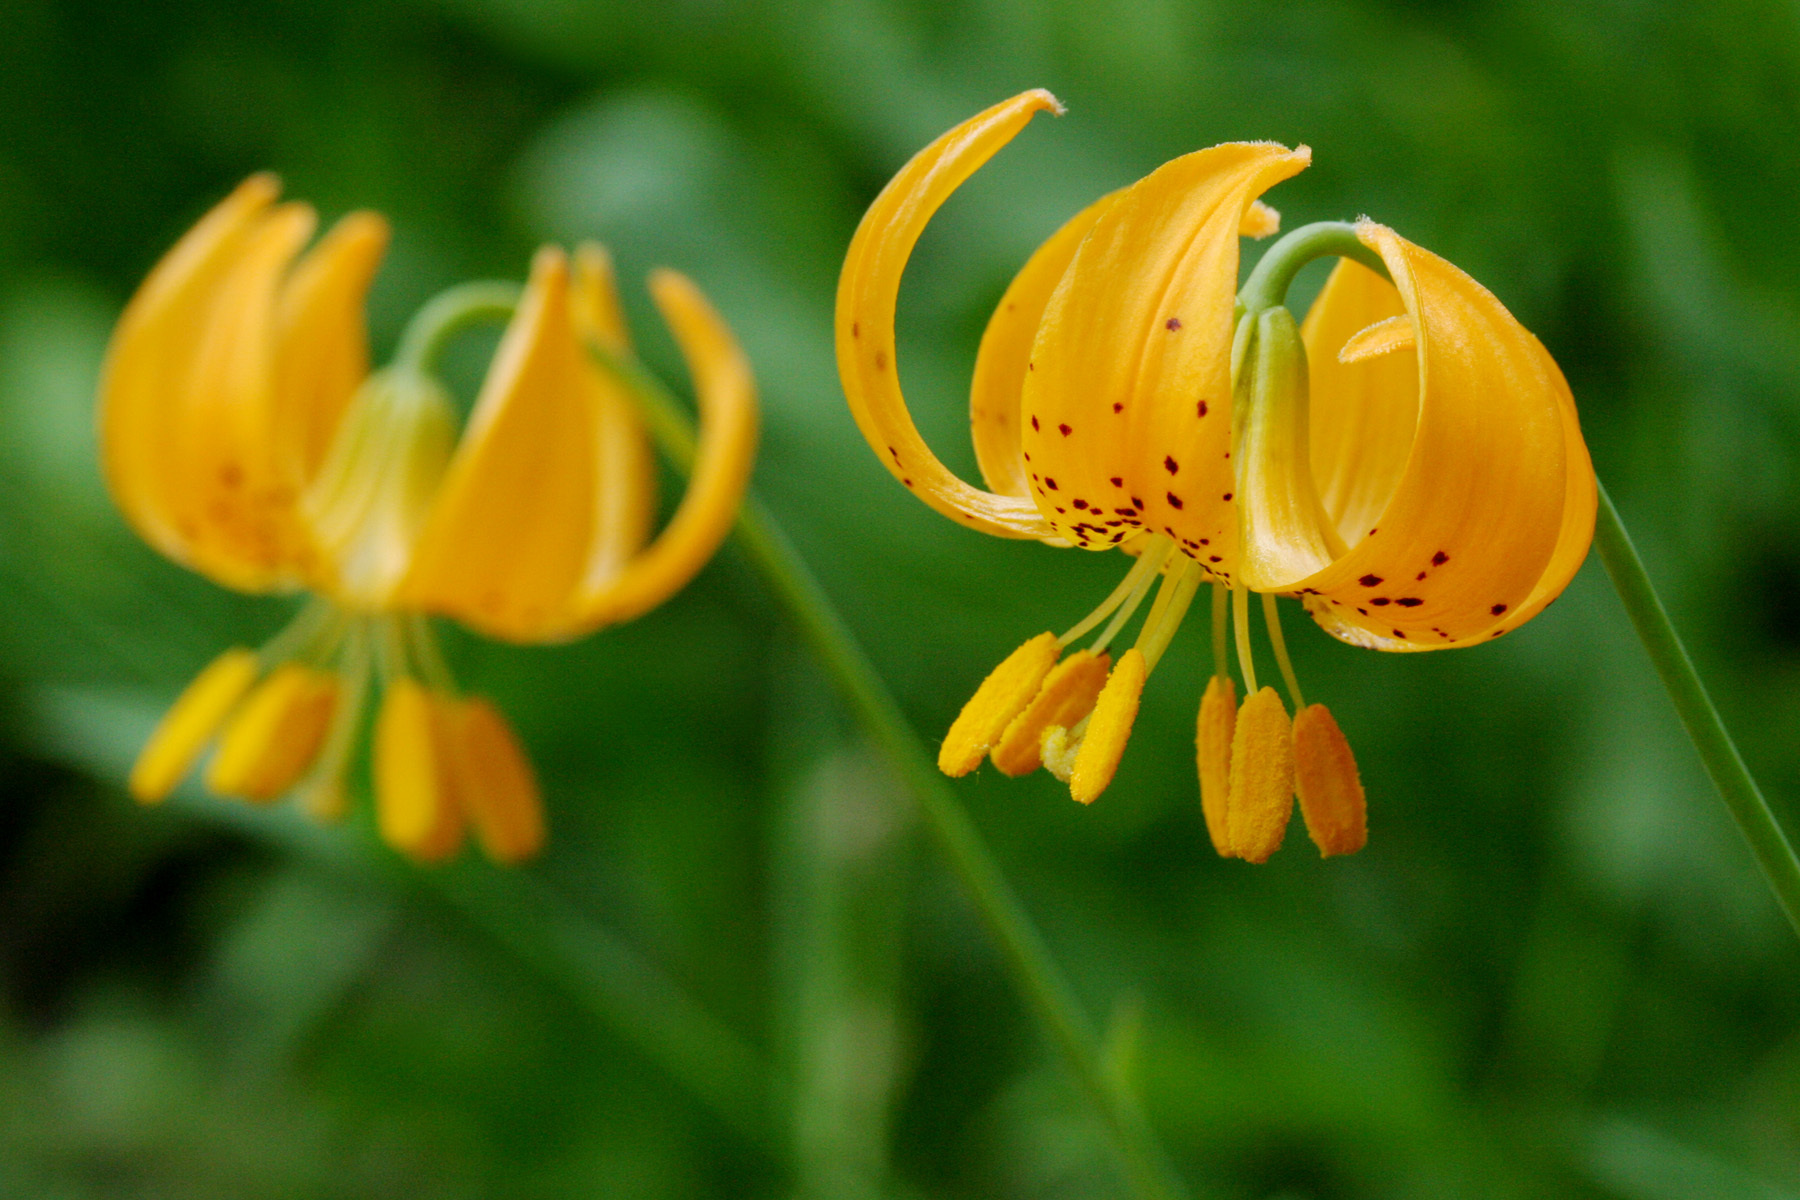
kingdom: Plantae
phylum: Tracheophyta
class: Liliopsida
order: Liliales
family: Liliaceae
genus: Lilium
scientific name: Lilium columbianum
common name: Columbia lily
